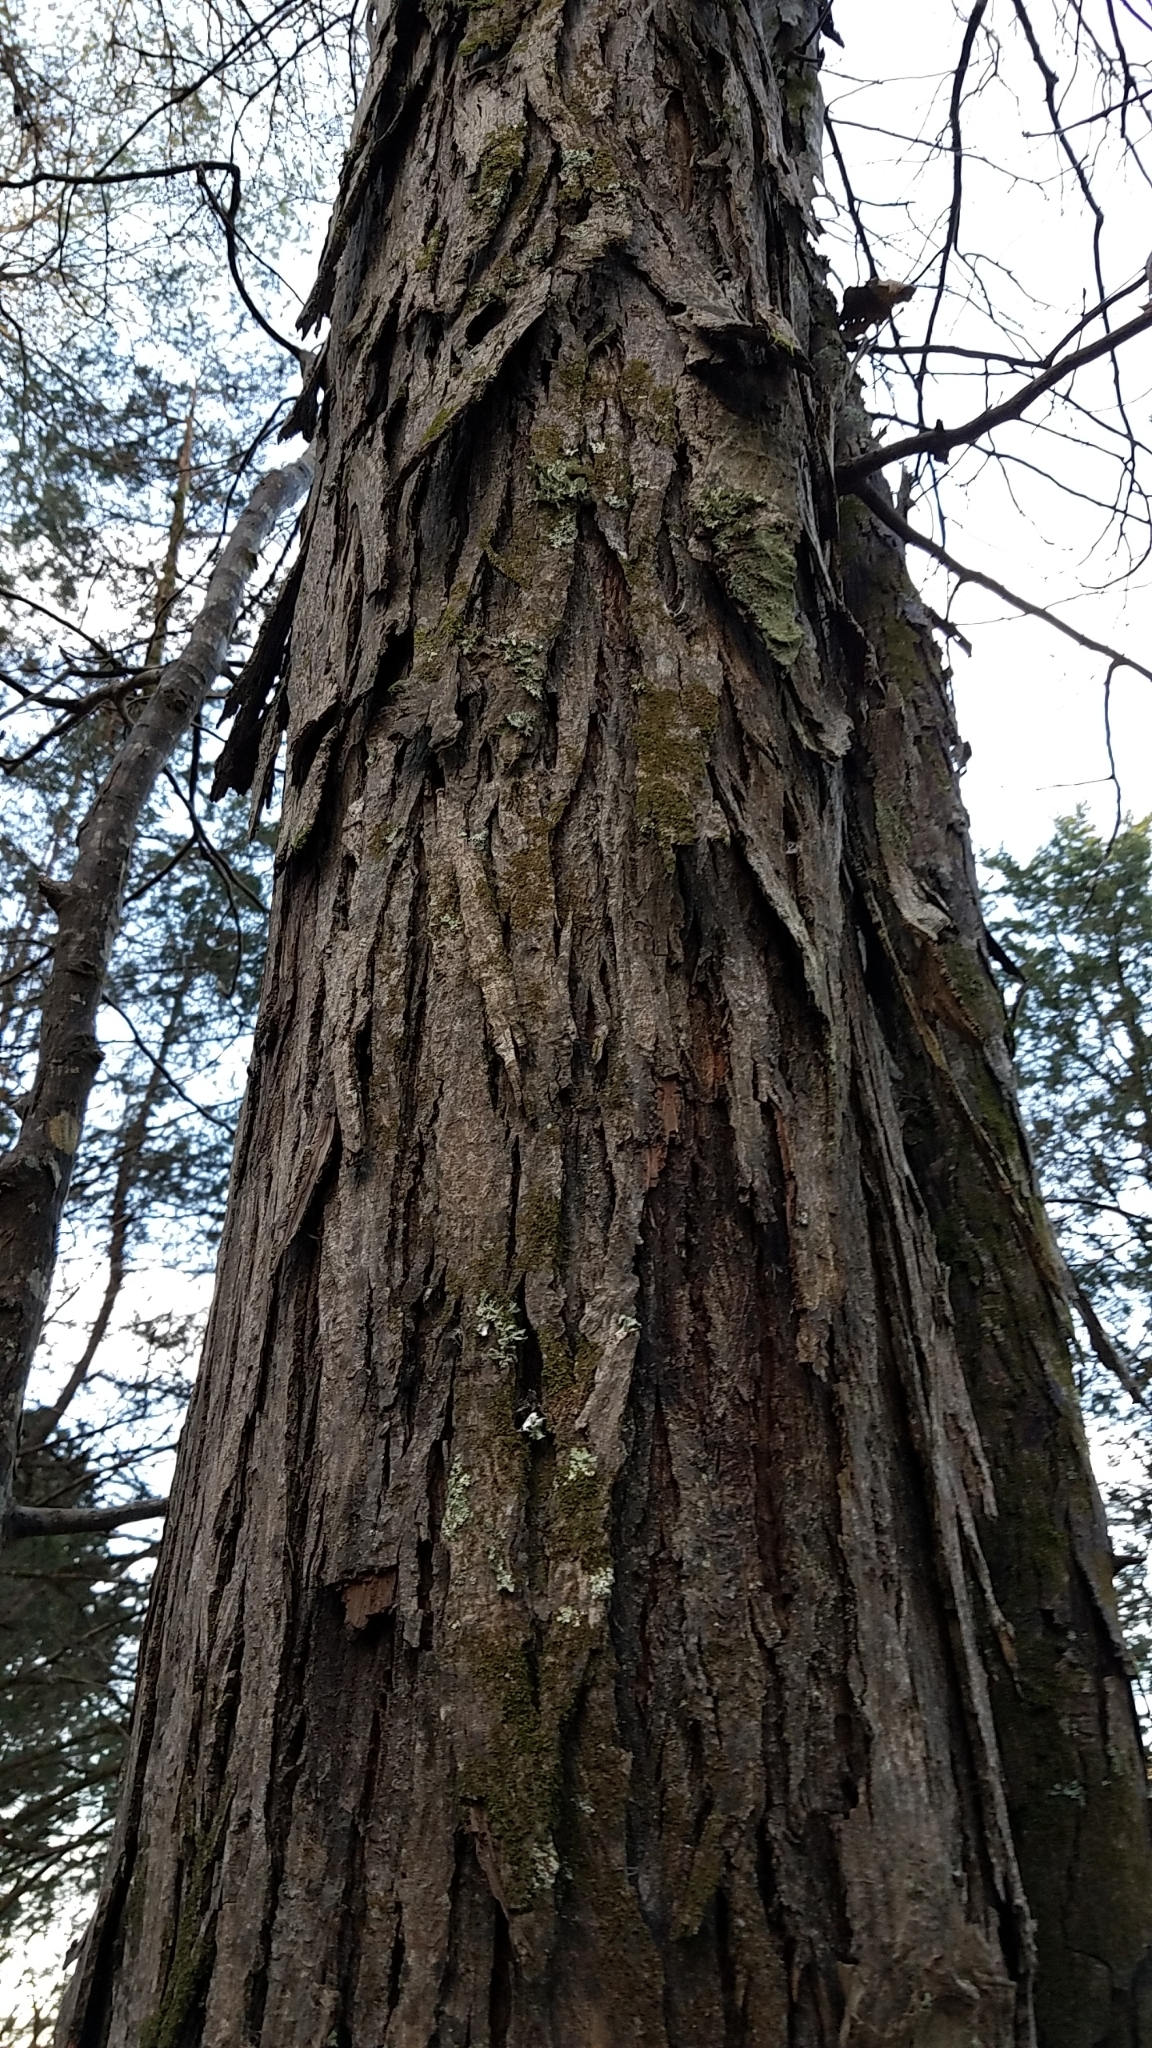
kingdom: Plantae
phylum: Tracheophyta
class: Magnoliopsida
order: Fagales
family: Juglandaceae
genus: Carya
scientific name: Carya ovata
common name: Shagbark hickory
